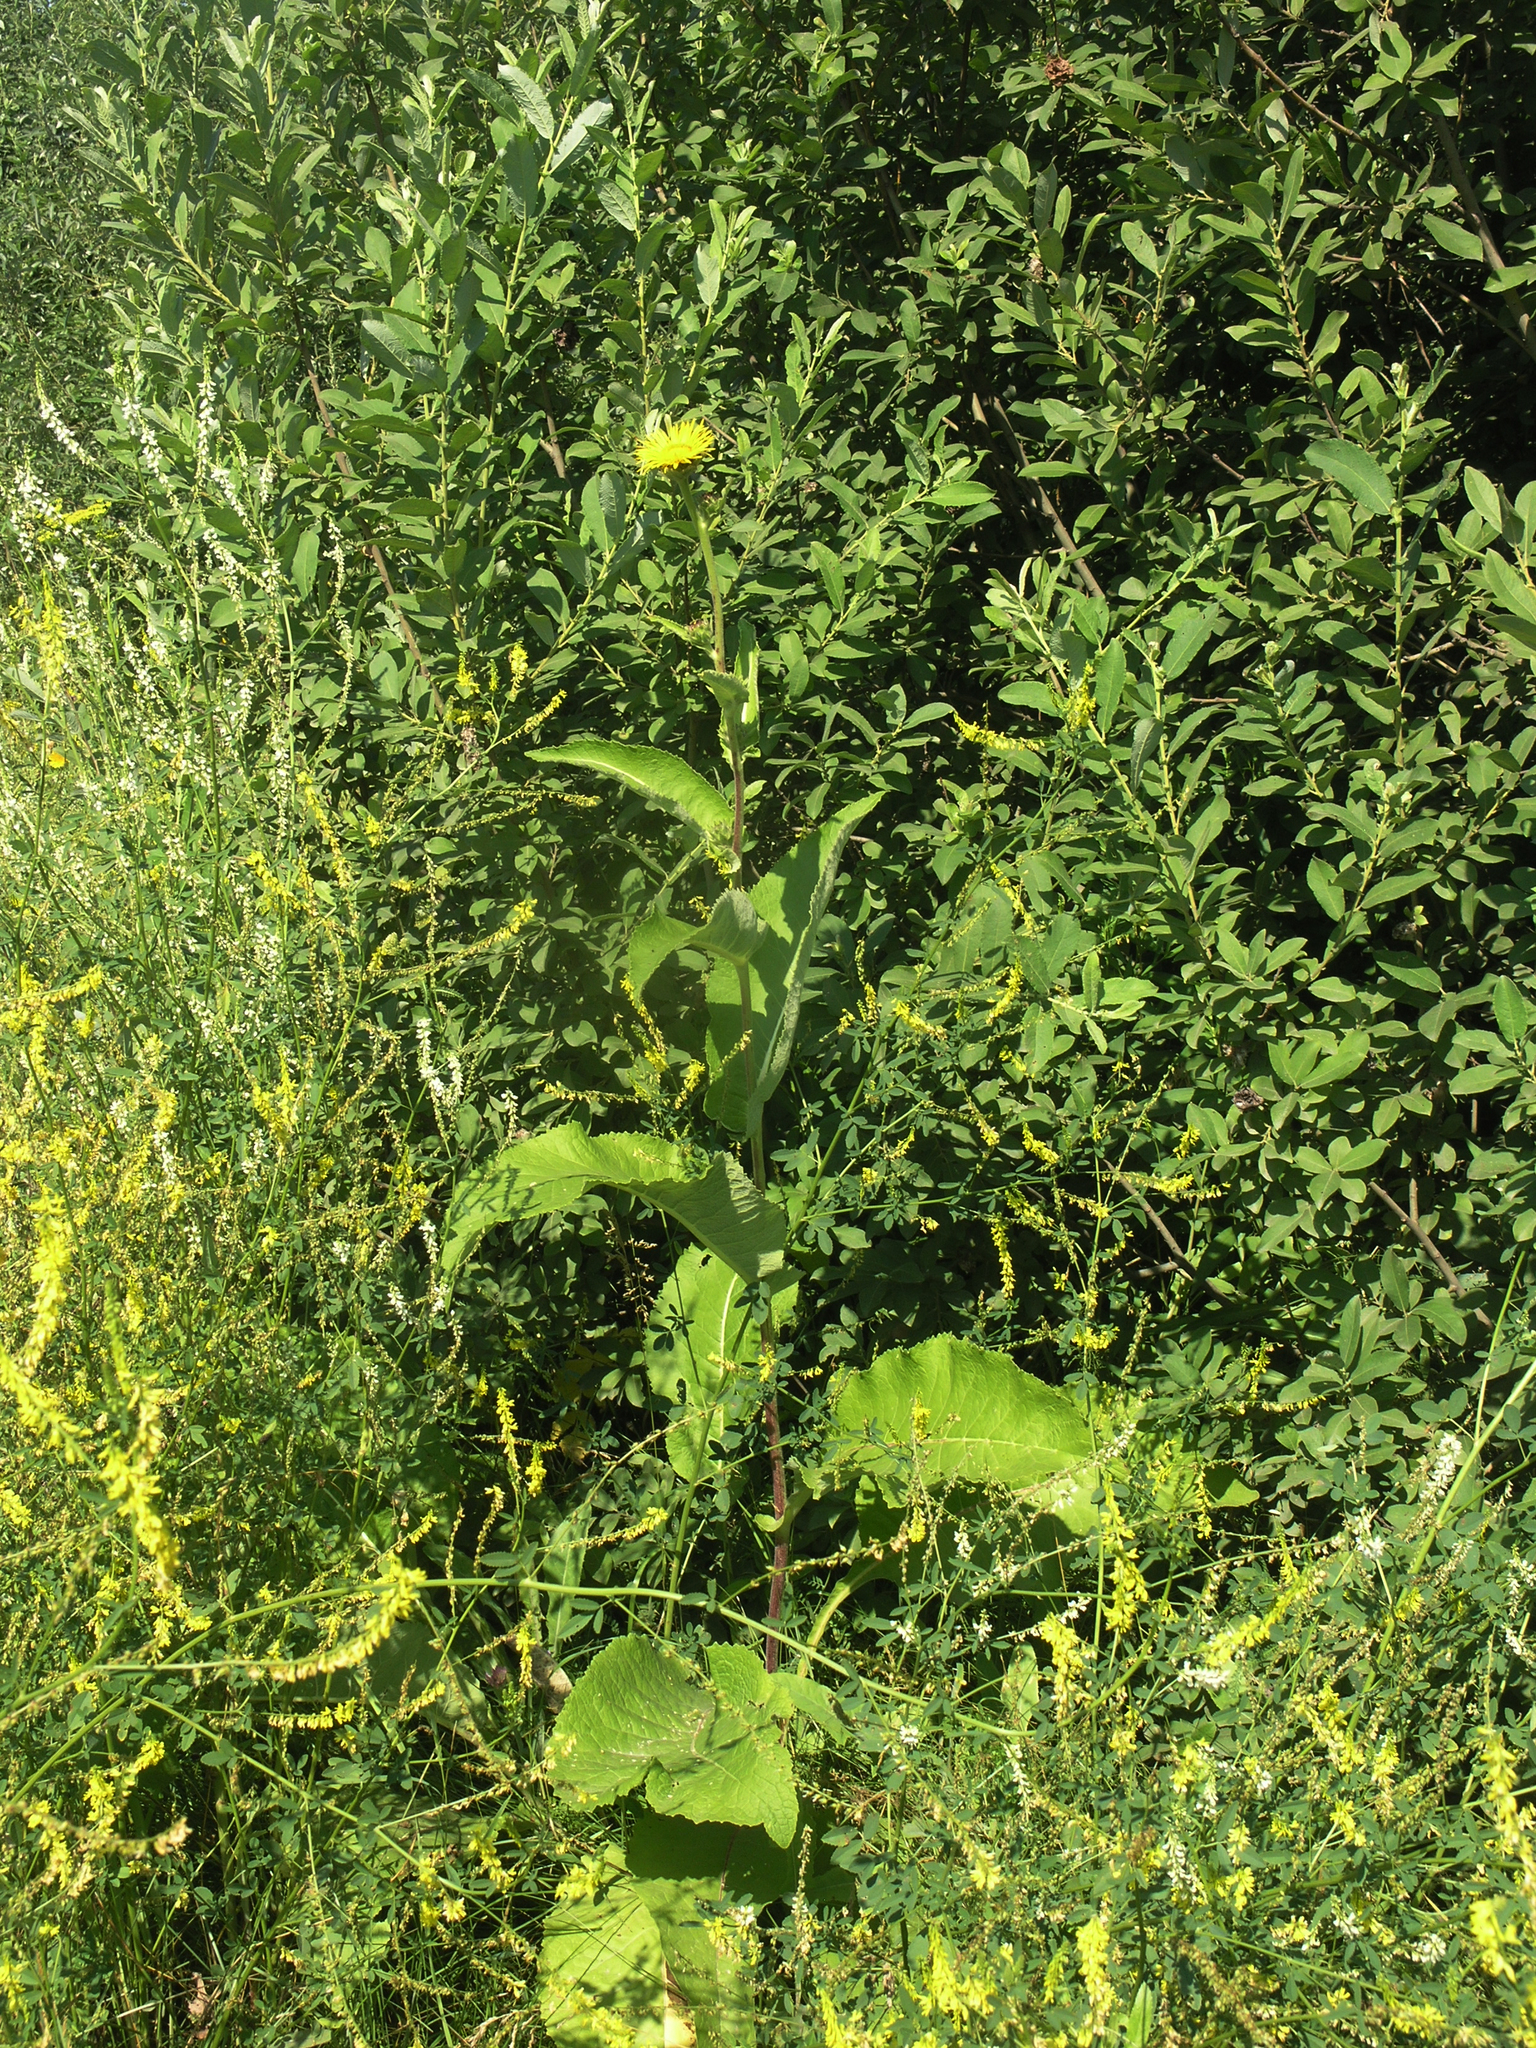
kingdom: Plantae
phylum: Tracheophyta
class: Magnoliopsida
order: Asterales
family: Asteraceae
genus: Inula
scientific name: Inula helenium
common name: Elecampane
